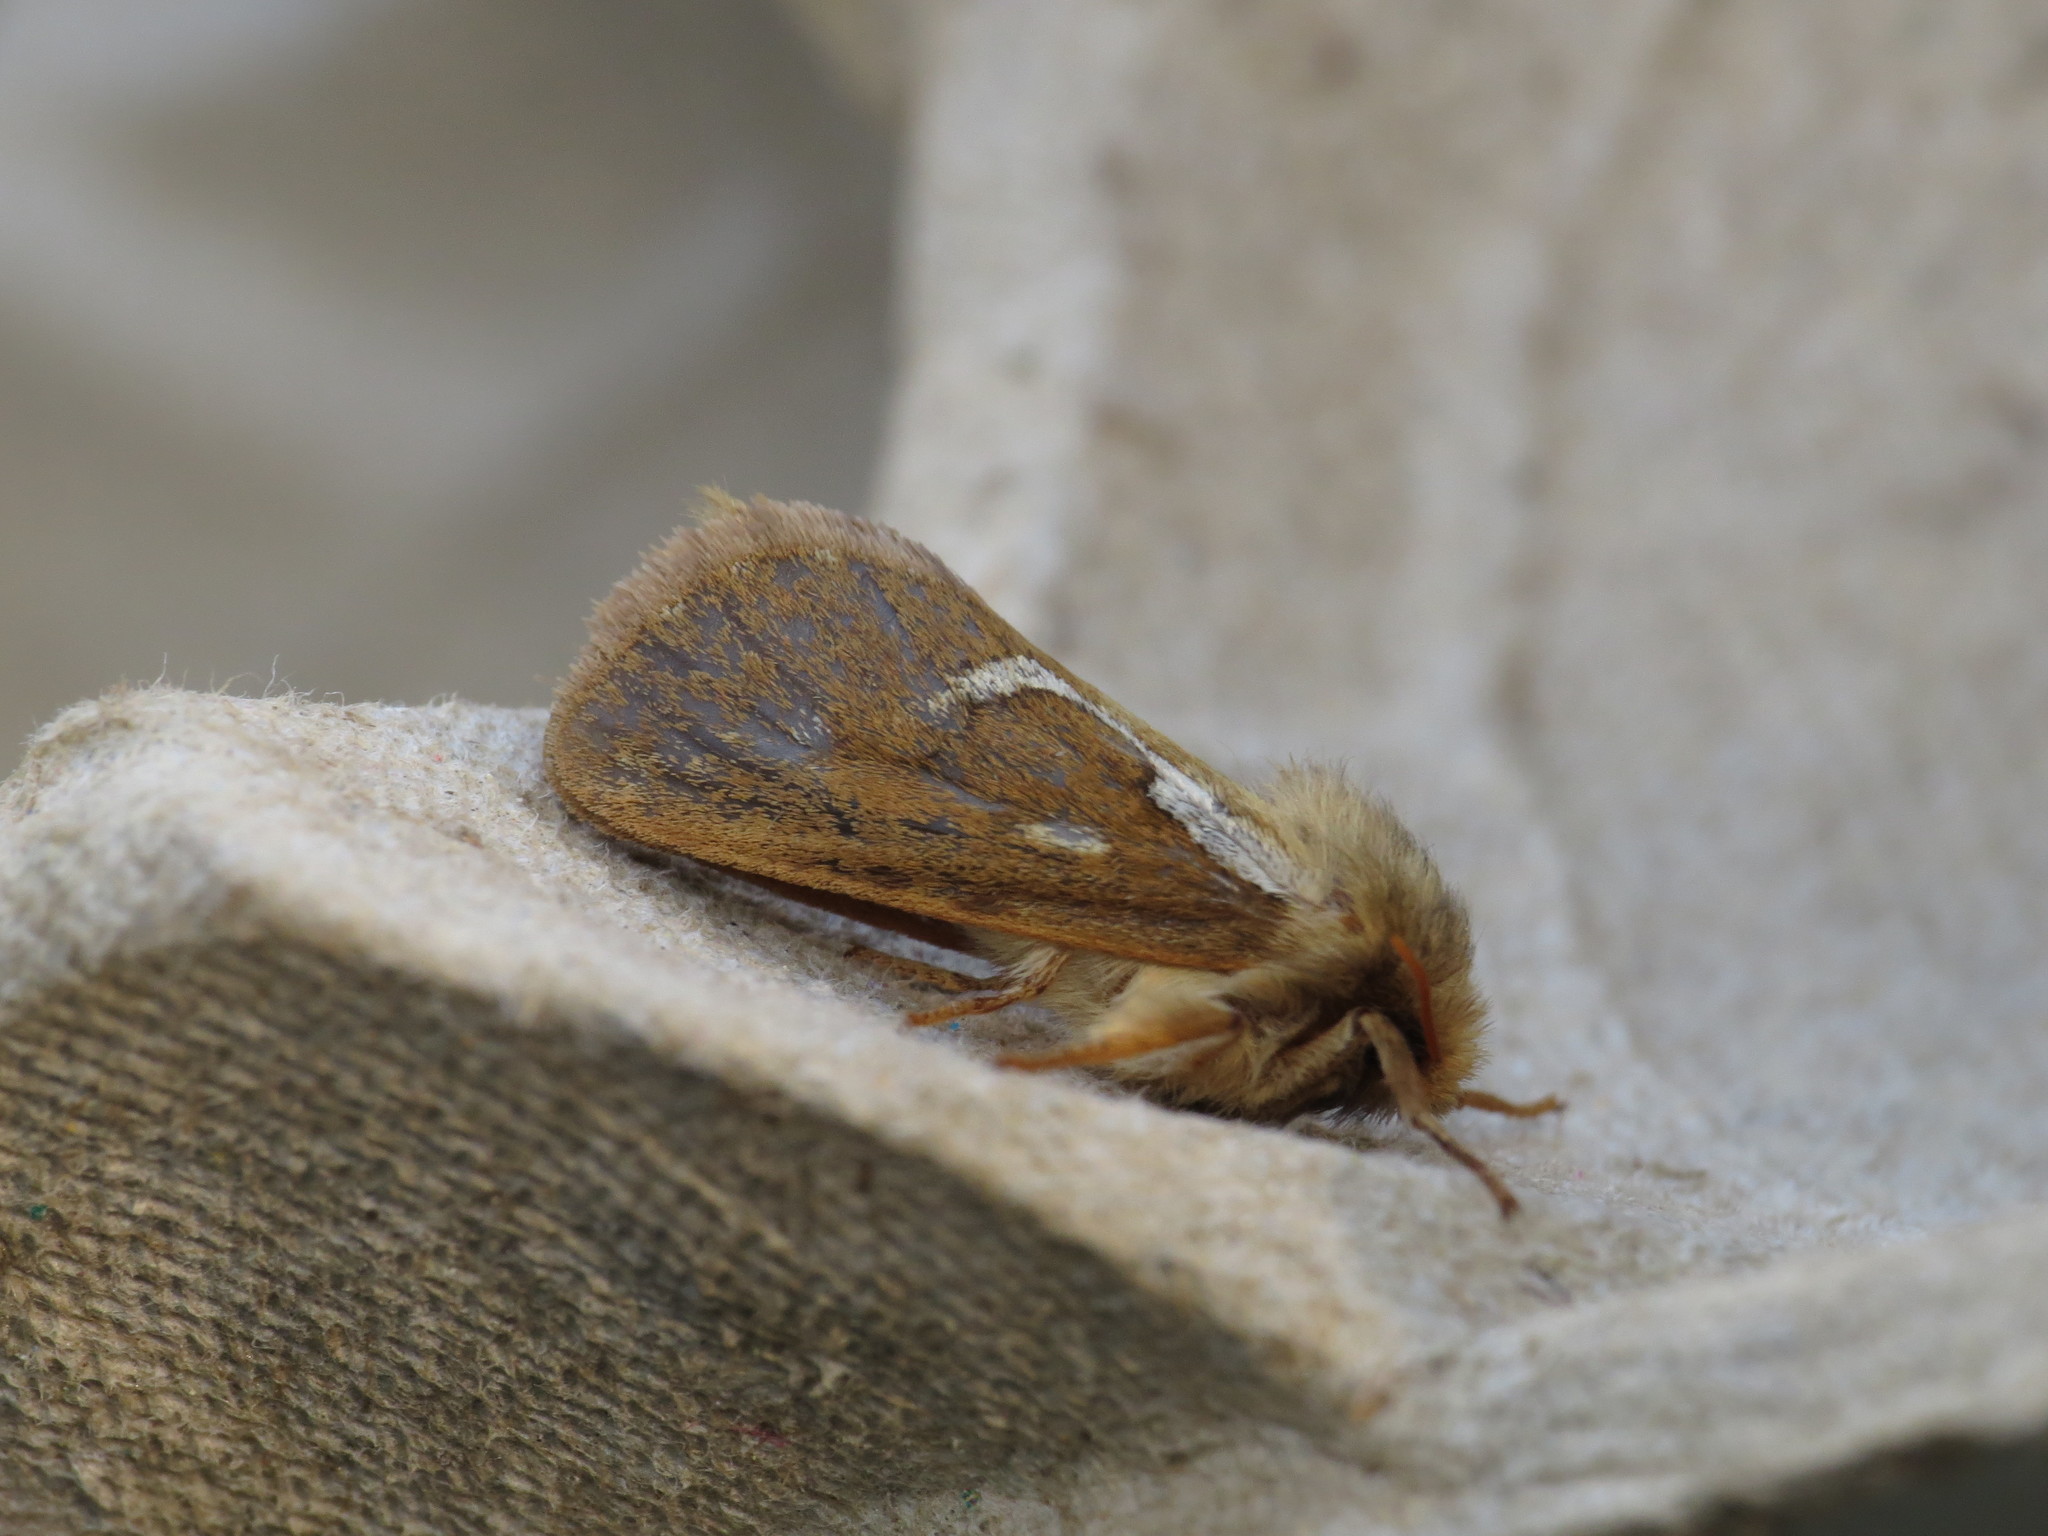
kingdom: Animalia
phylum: Arthropoda
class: Insecta
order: Lepidoptera
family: Hepialidae
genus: Korscheltellus
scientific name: Korscheltellus lupulina
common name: Common swift
